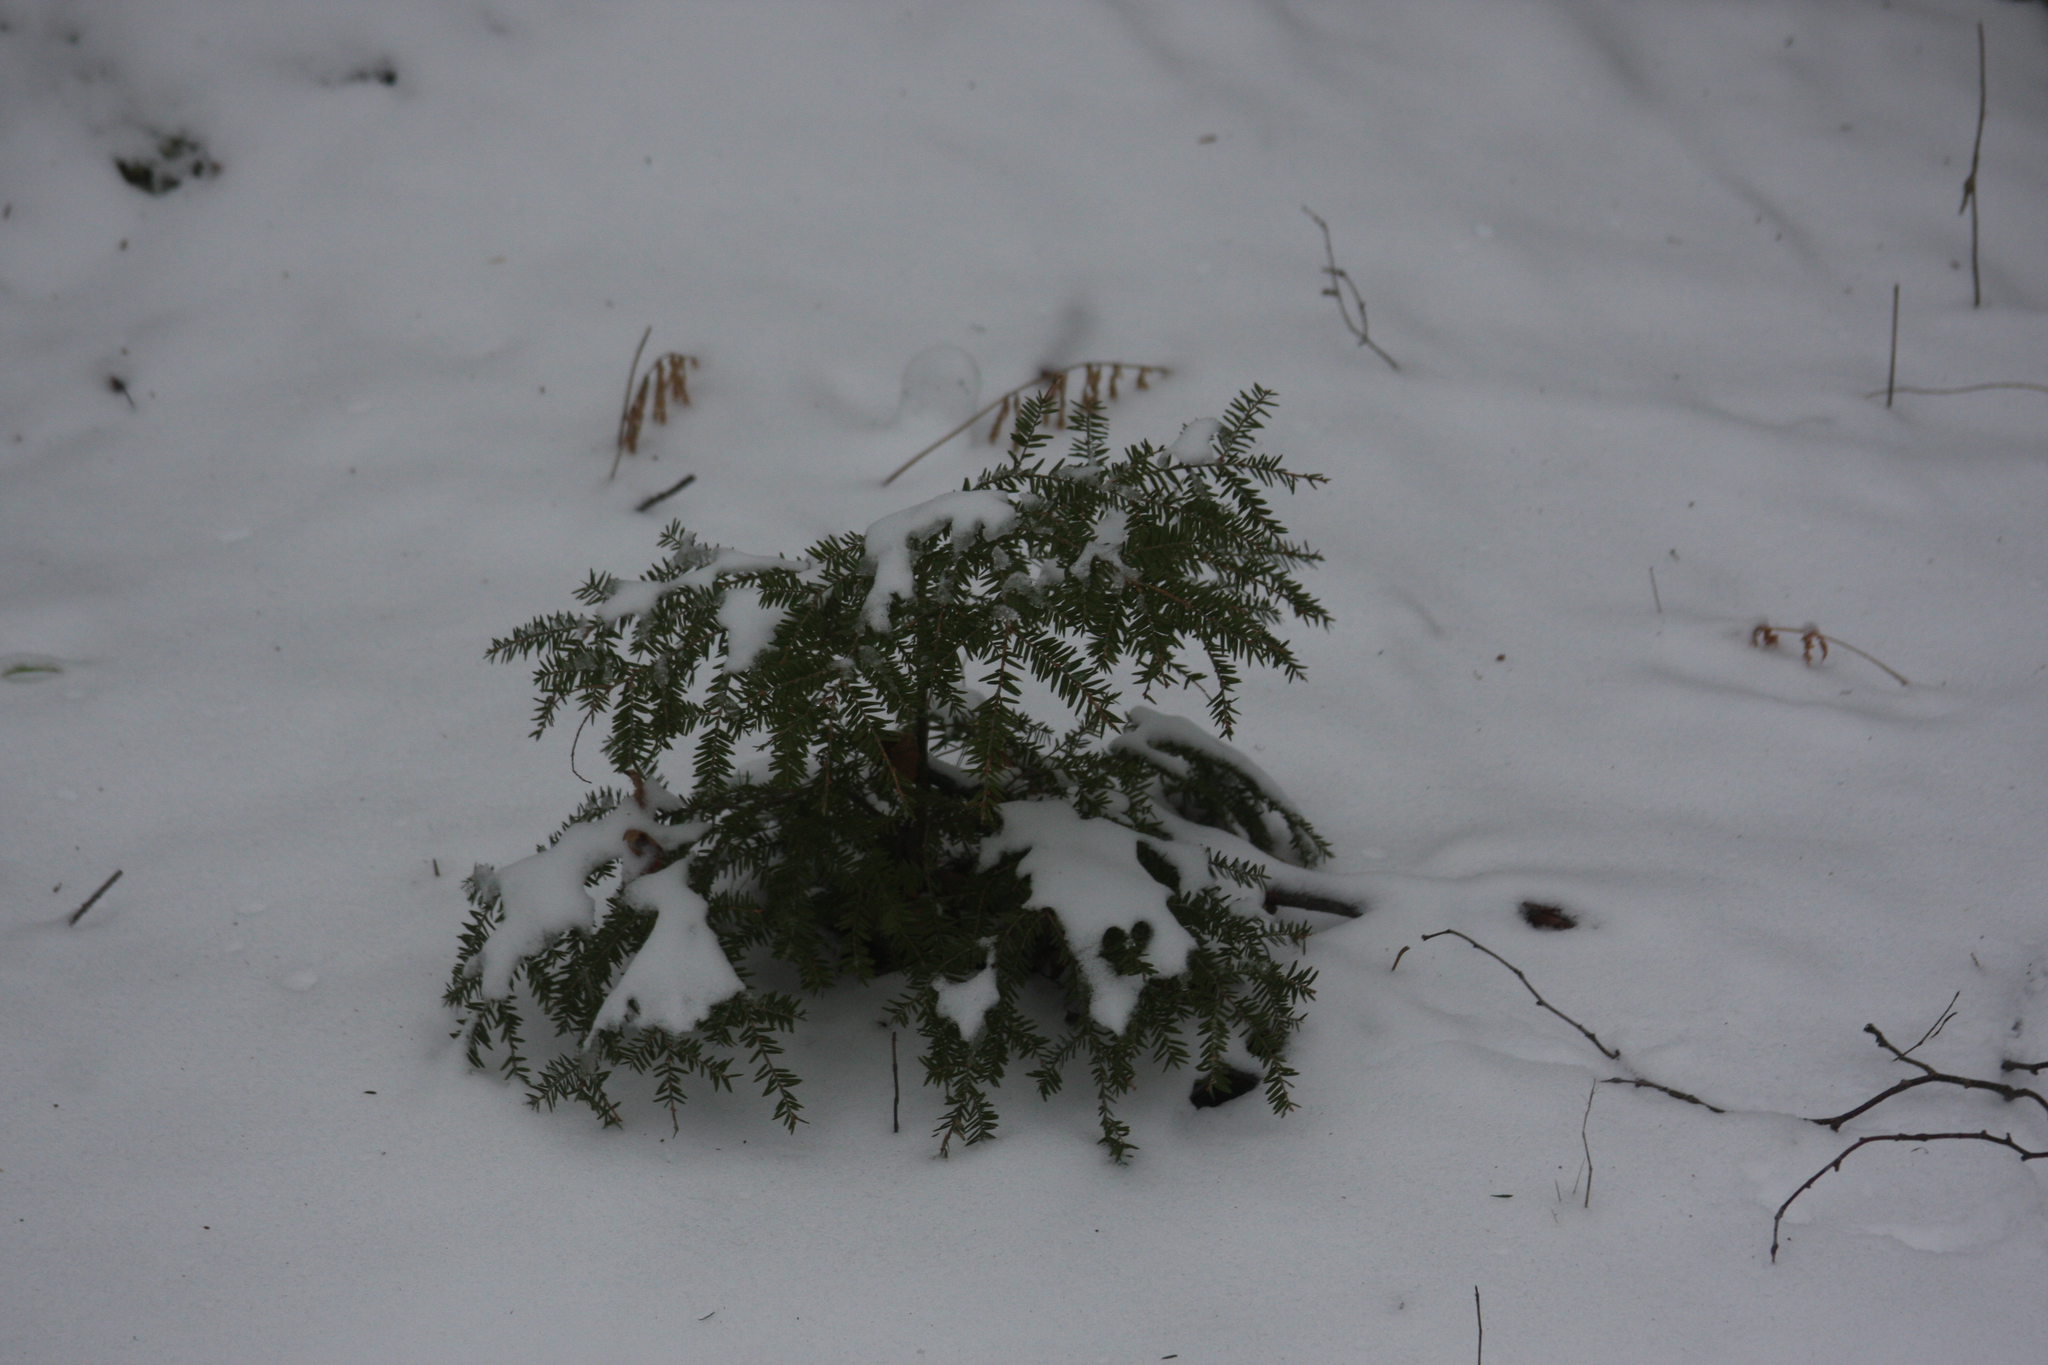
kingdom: Plantae
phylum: Tracheophyta
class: Pinopsida
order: Pinales
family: Pinaceae
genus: Tsuga
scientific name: Tsuga canadensis
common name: Eastern hemlock
